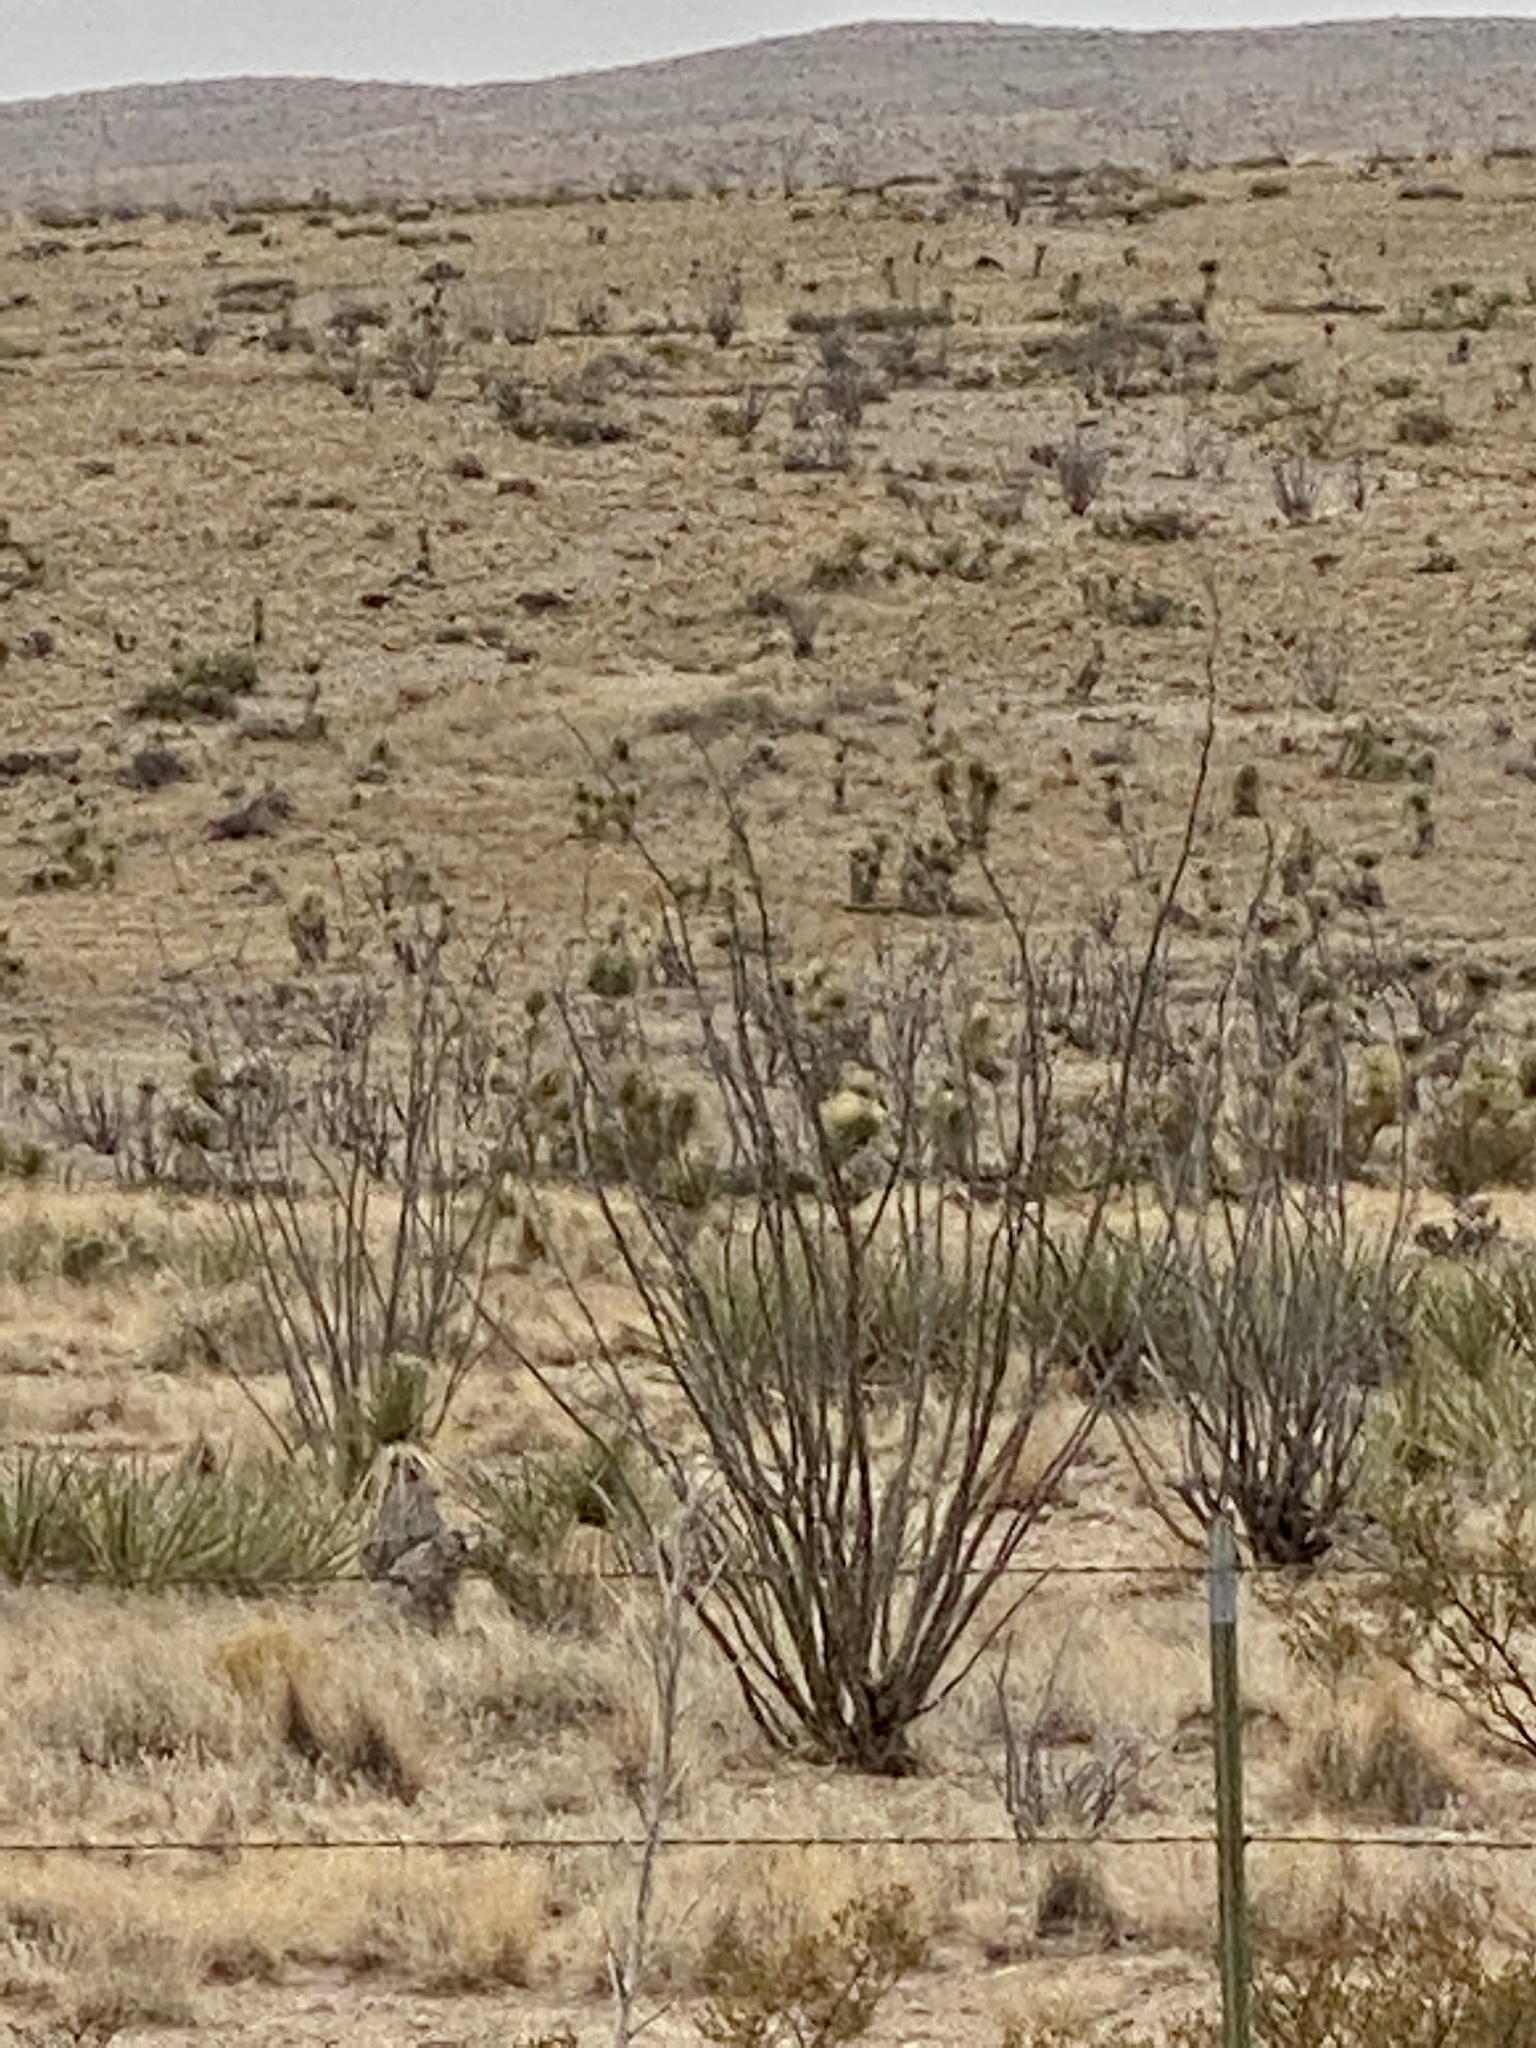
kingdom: Plantae
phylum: Tracheophyta
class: Magnoliopsida
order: Ericales
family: Fouquieriaceae
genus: Fouquieria
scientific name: Fouquieria splendens
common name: Vine-cactus
